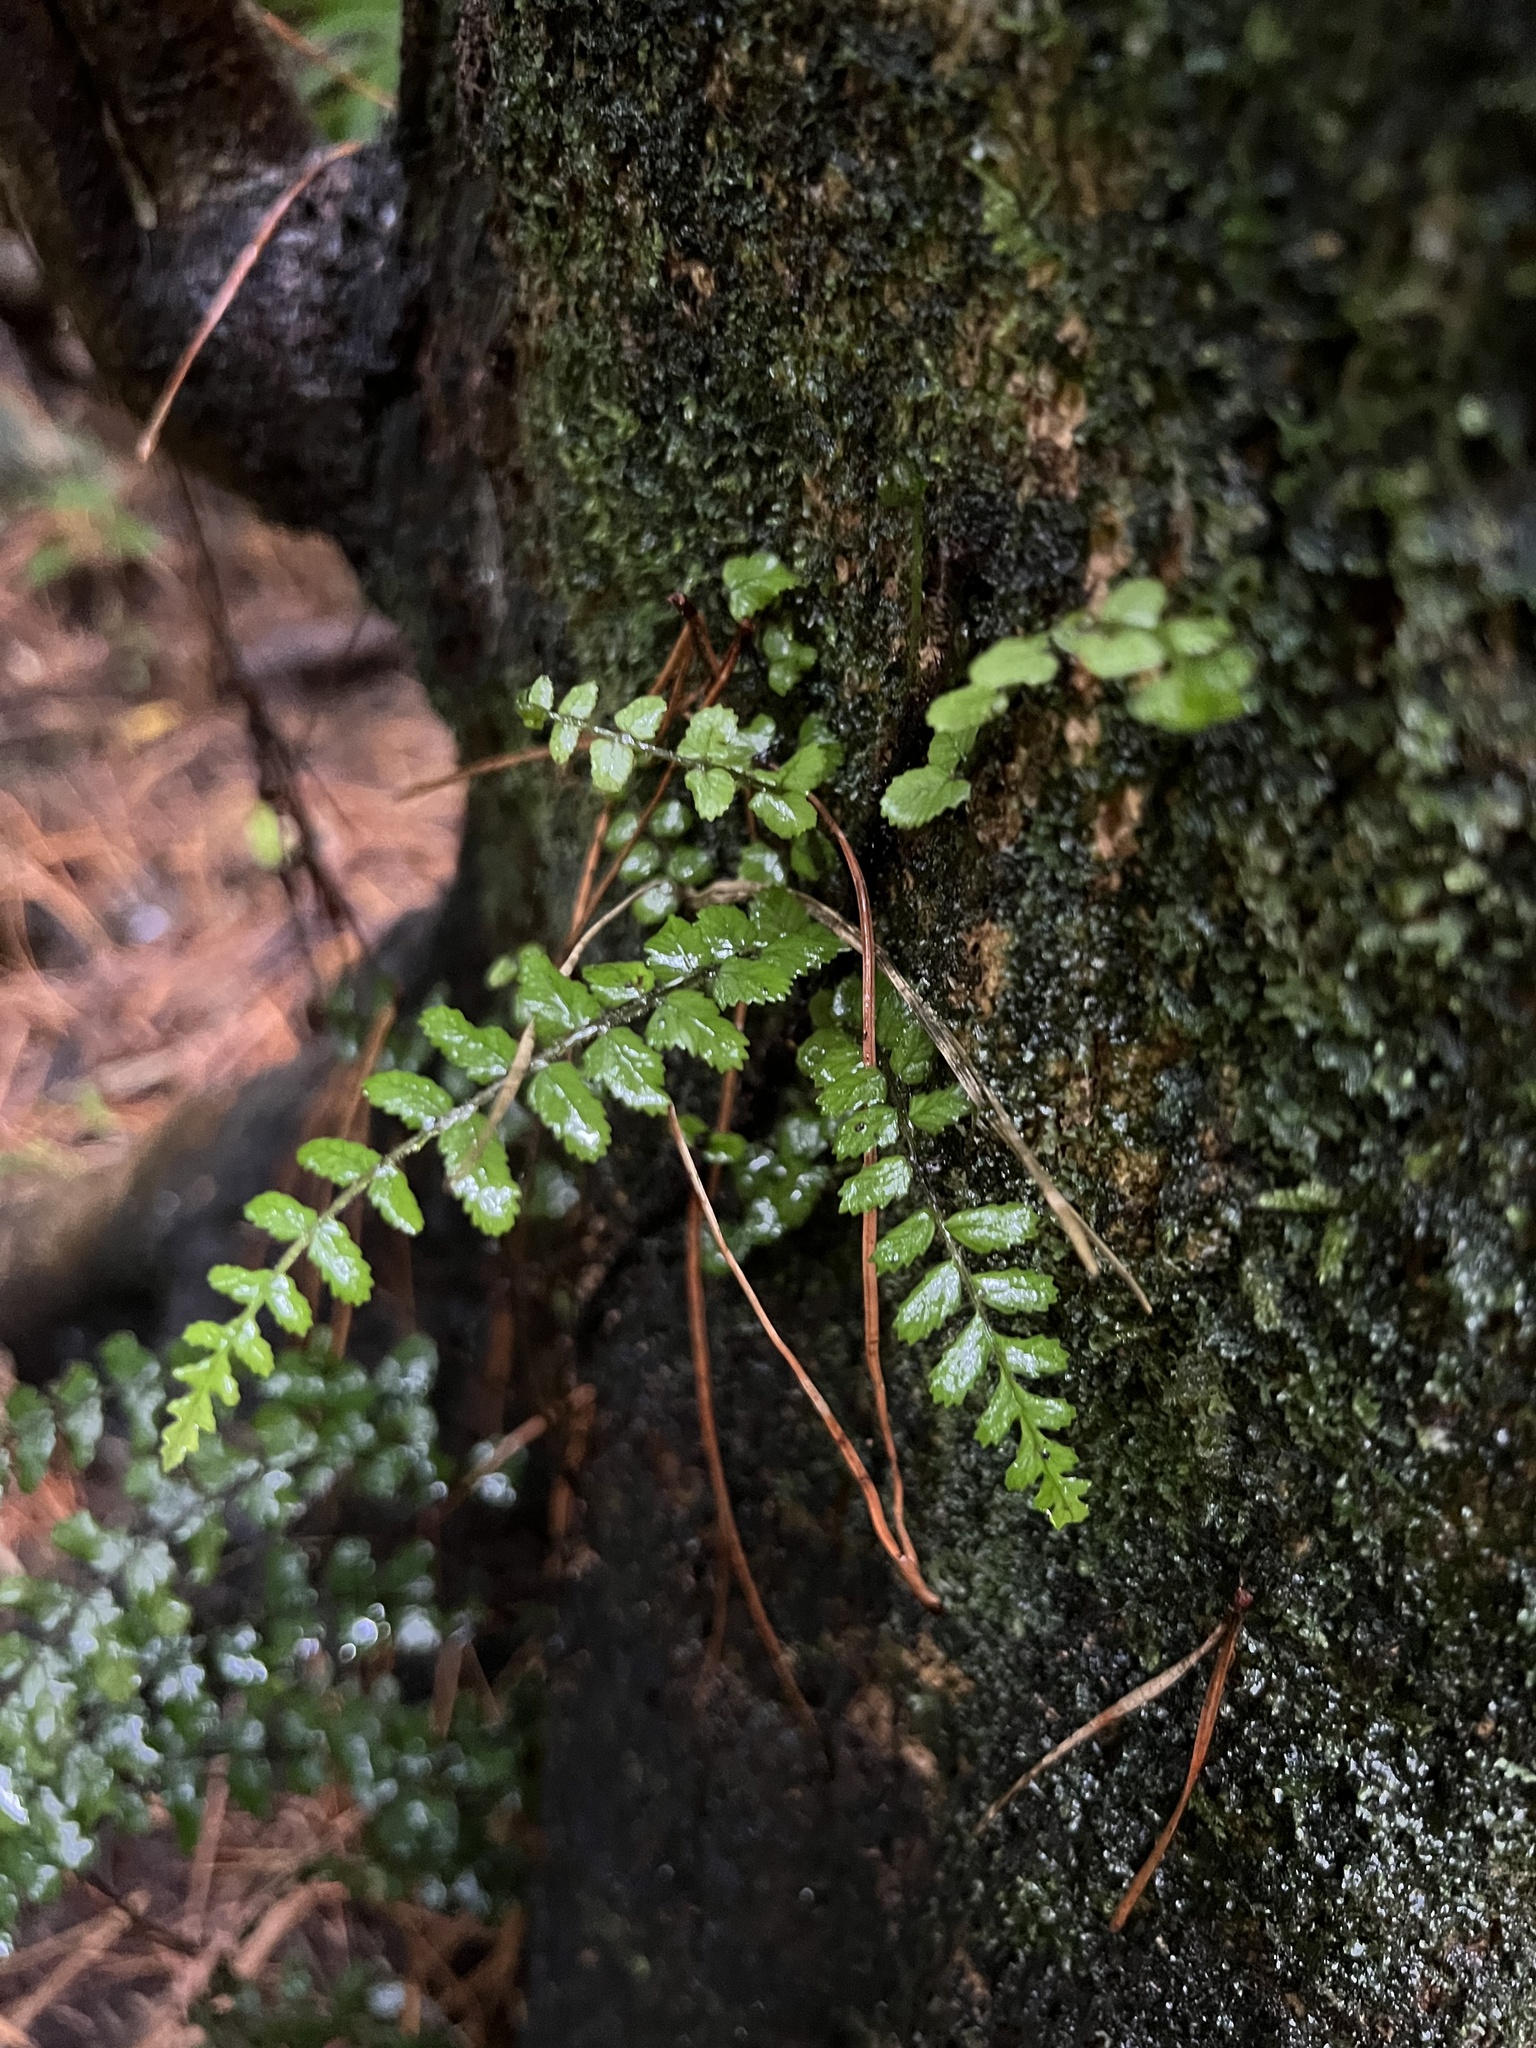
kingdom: Plantae
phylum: Tracheophyta
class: Polypodiopsida
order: Polypodiales
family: Blechnaceae
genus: Icarus
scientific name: Icarus filiformis
